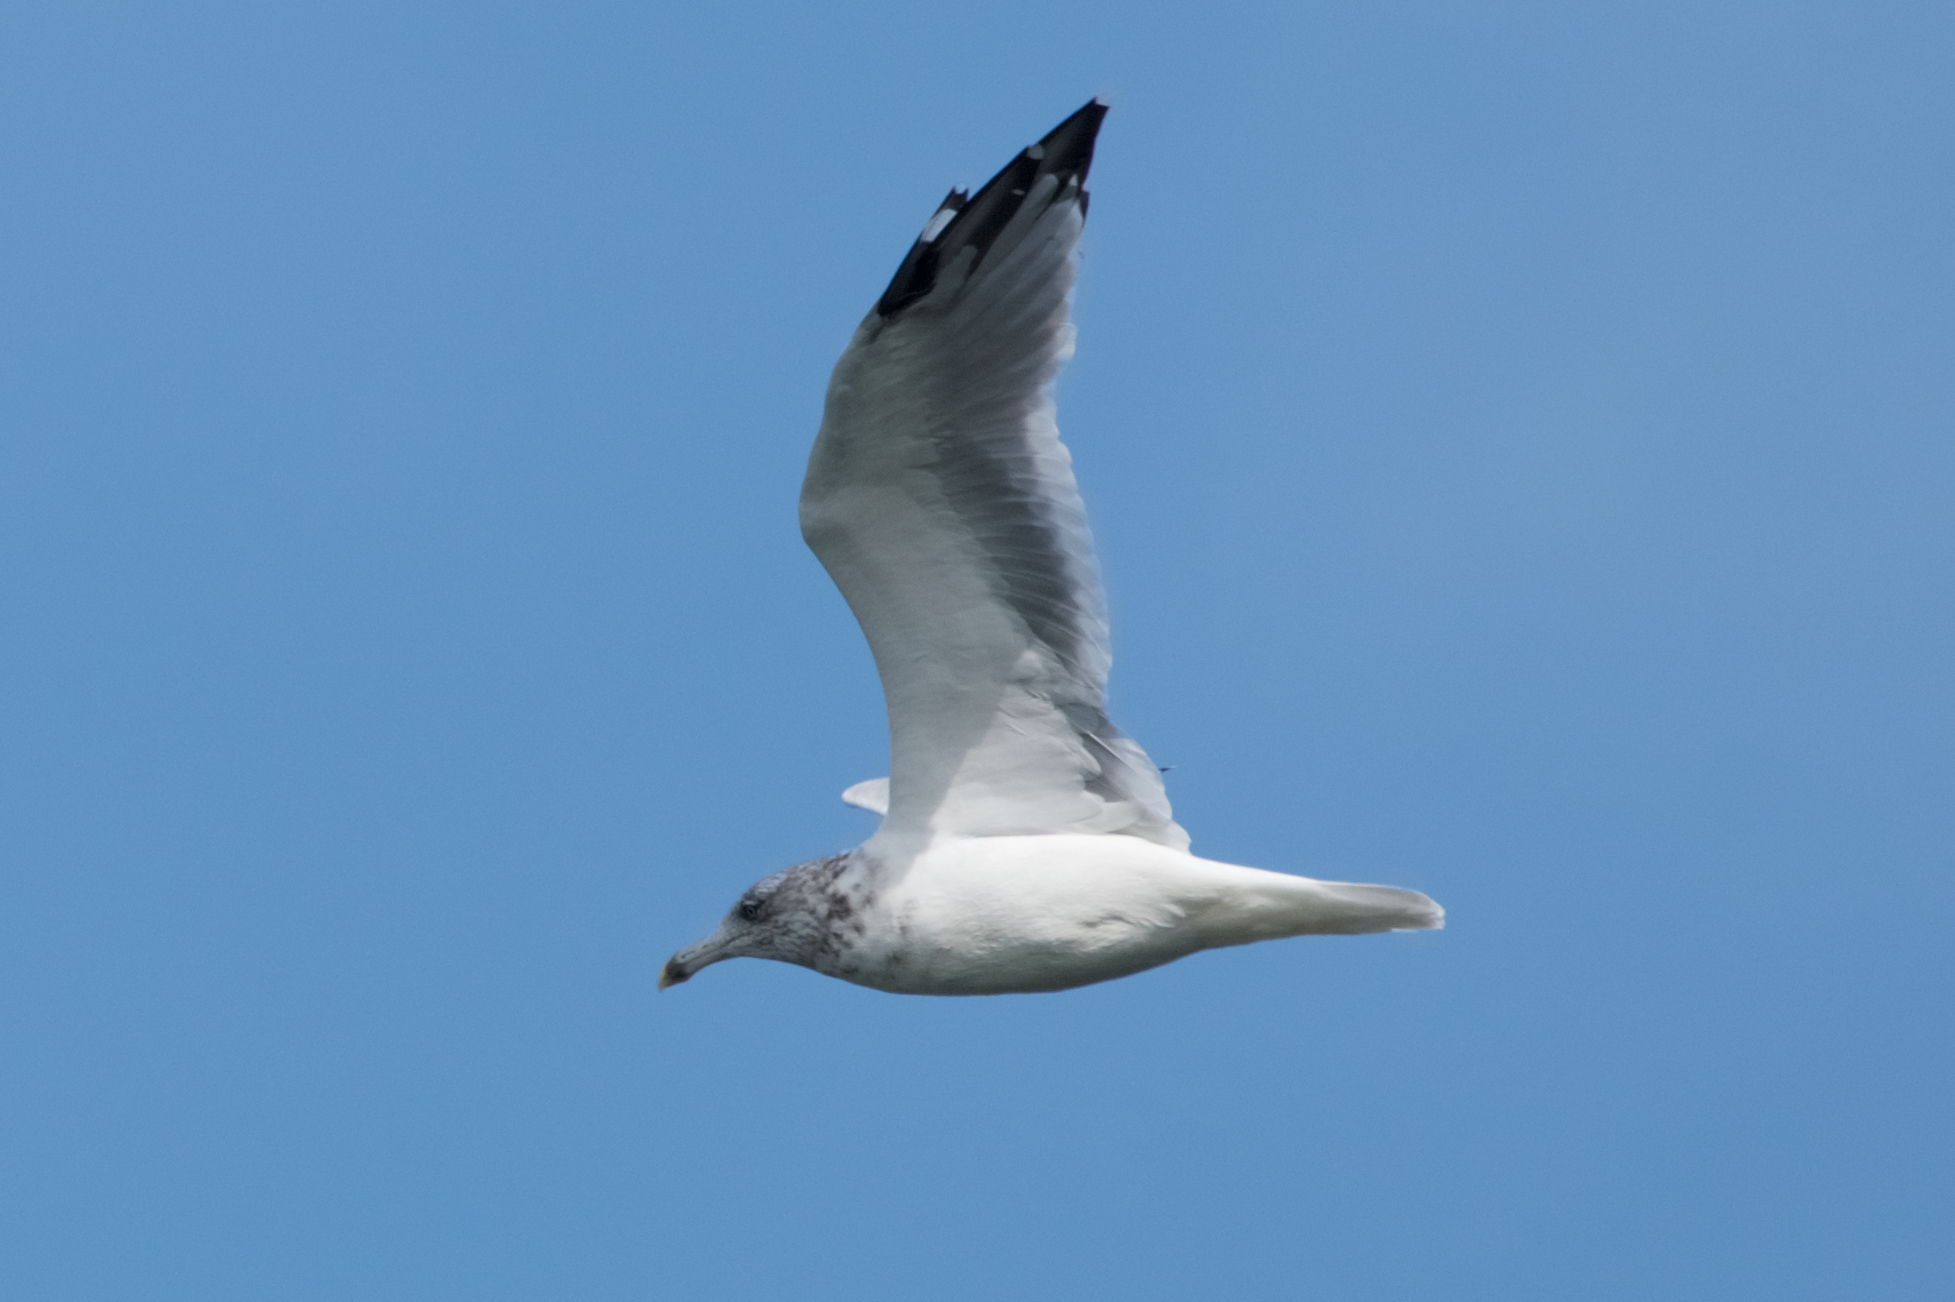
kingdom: Animalia
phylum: Chordata
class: Aves
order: Charadriiformes
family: Laridae
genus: Larus
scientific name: Larus argentatus
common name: Herring gull
